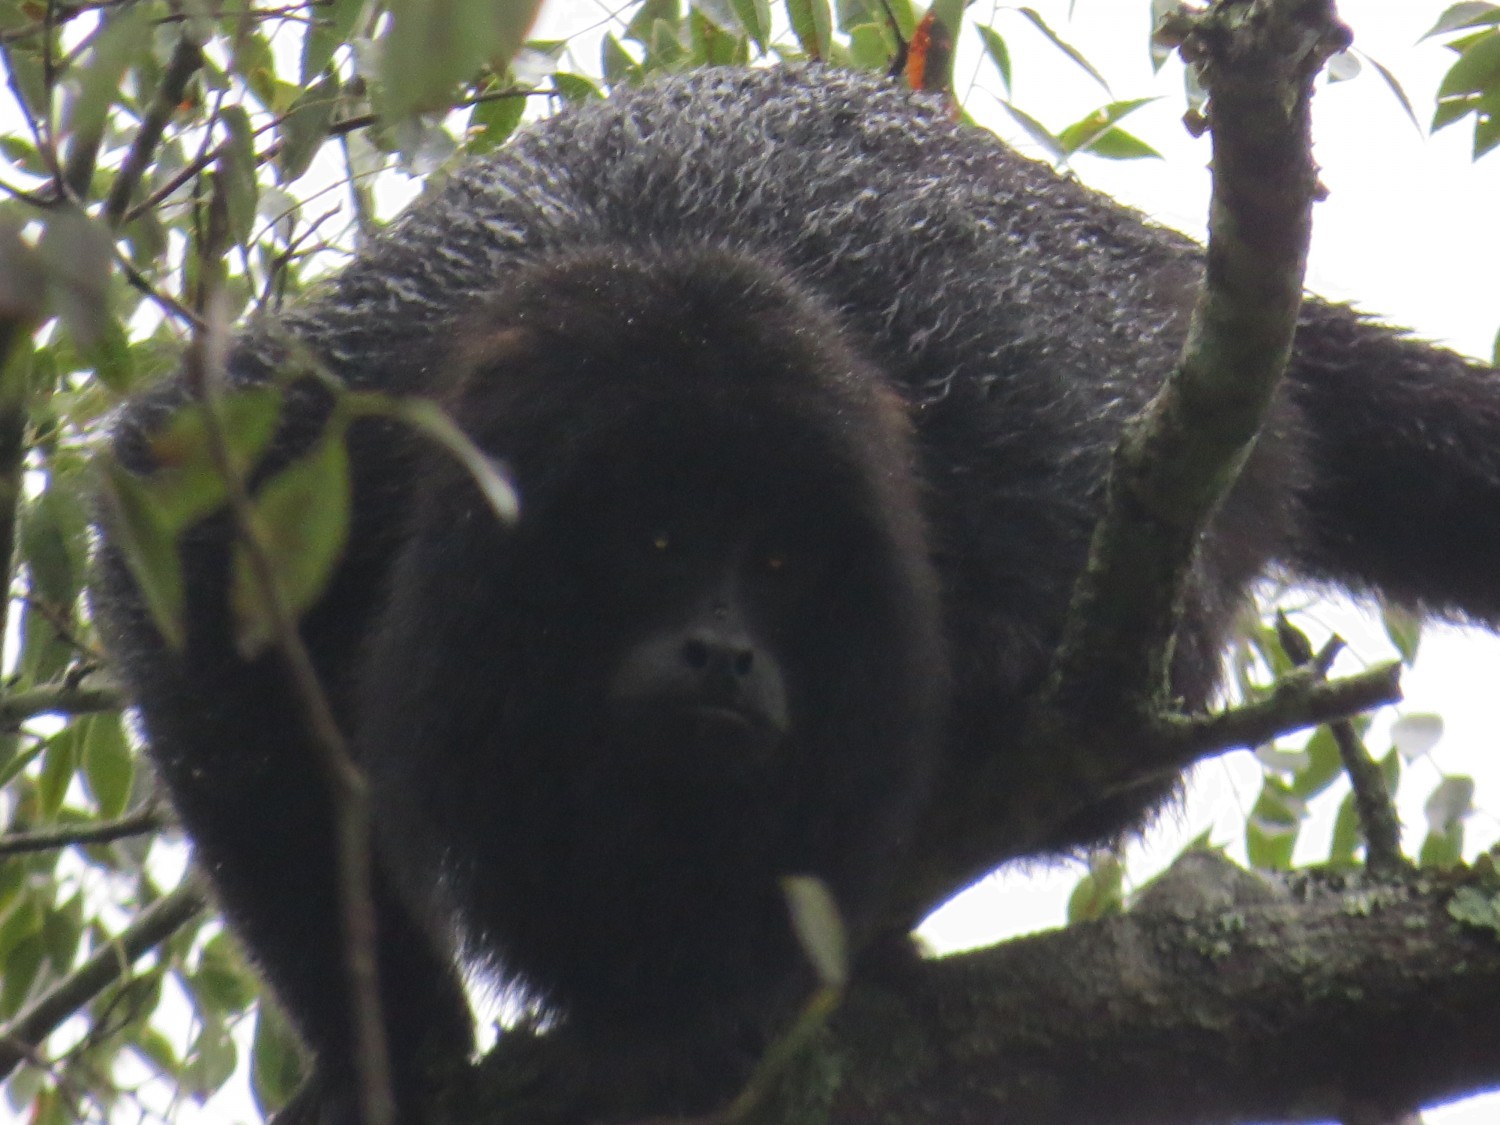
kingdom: Animalia
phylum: Chordata
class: Mammalia
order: Primates
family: Atelidae
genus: Alouatta
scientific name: Alouatta caraya
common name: Black howler
